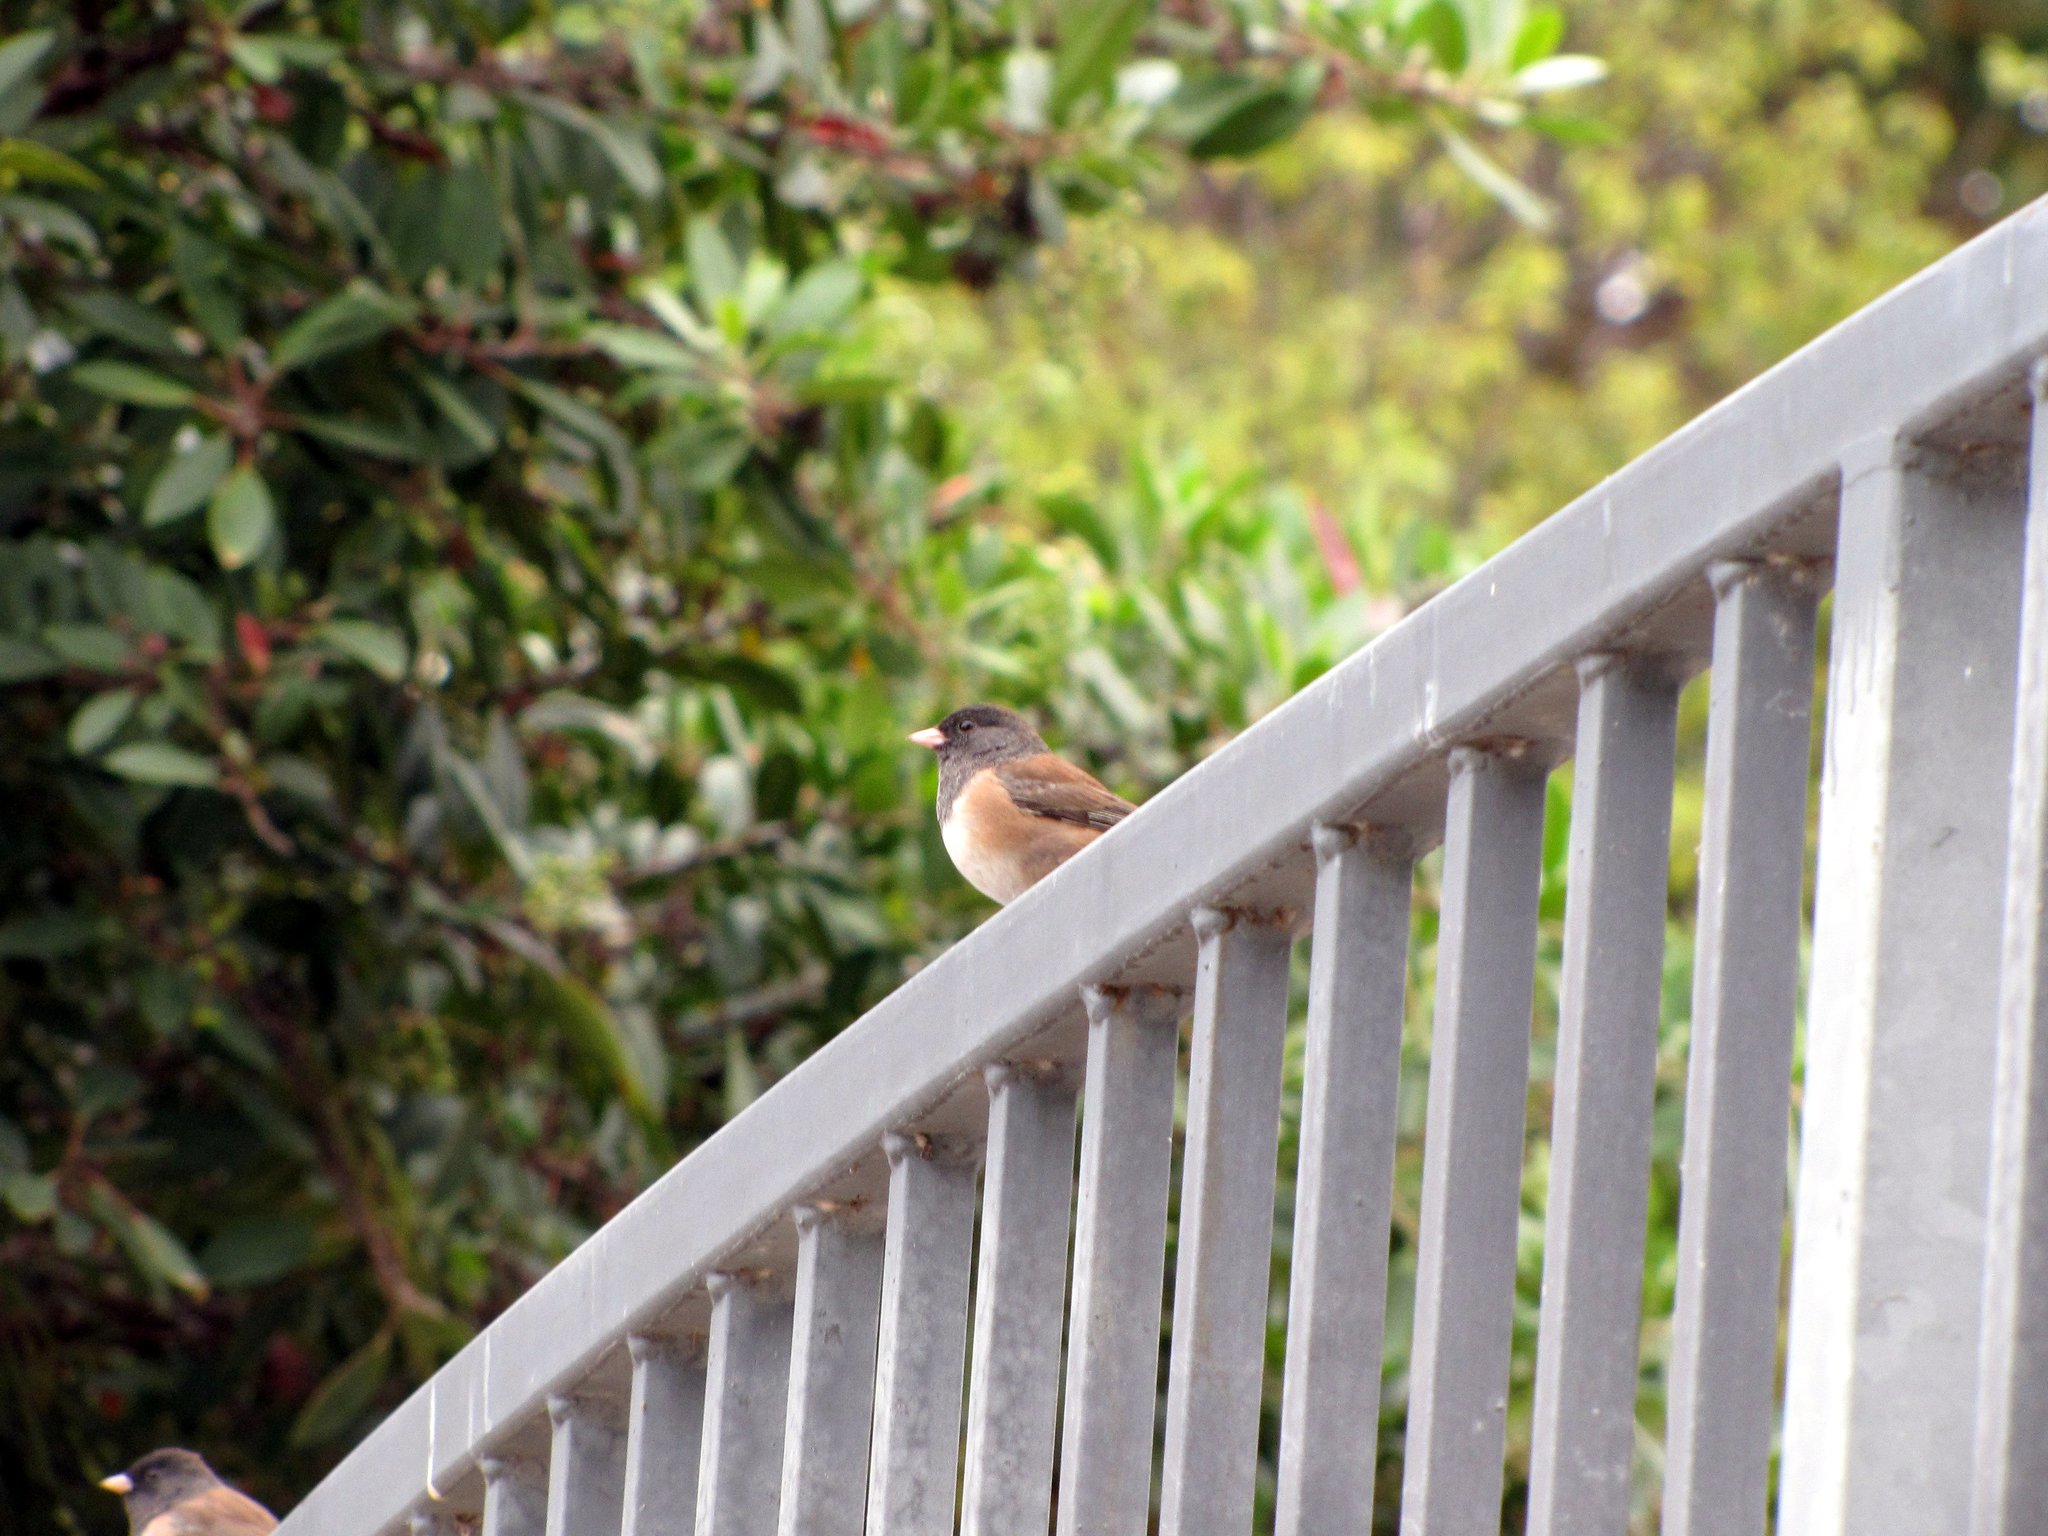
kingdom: Animalia
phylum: Chordata
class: Aves
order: Passeriformes
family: Passerellidae
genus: Junco
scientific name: Junco hyemalis
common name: Dark-eyed junco
